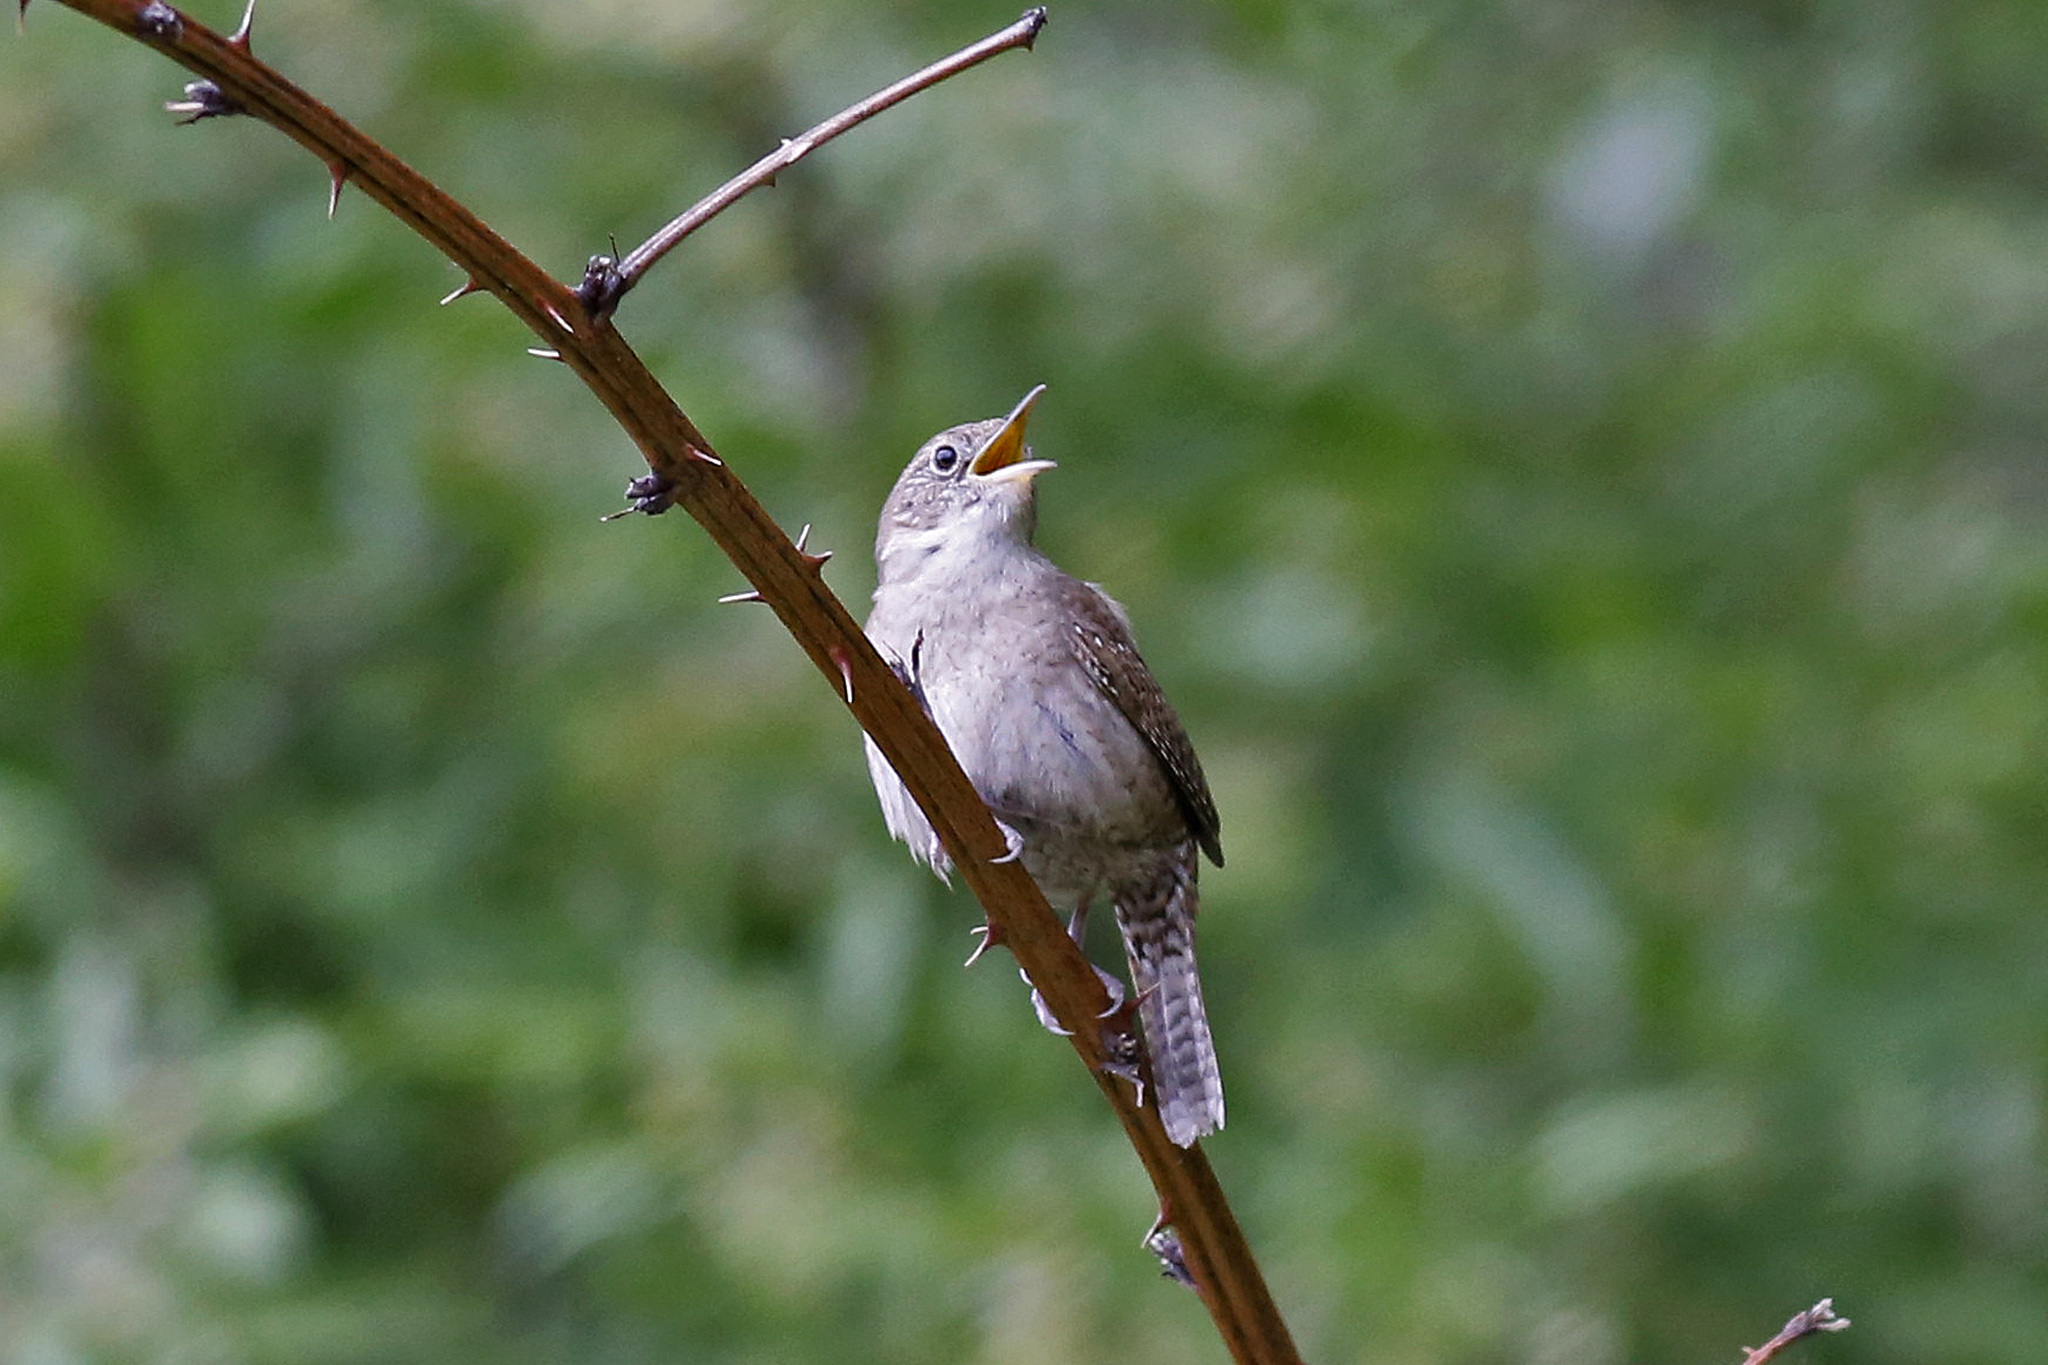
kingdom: Animalia
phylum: Chordata
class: Aves
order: Passeriformes
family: Troglodytidae
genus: Troglodytes
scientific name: Troglodytes aedon
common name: House wren
